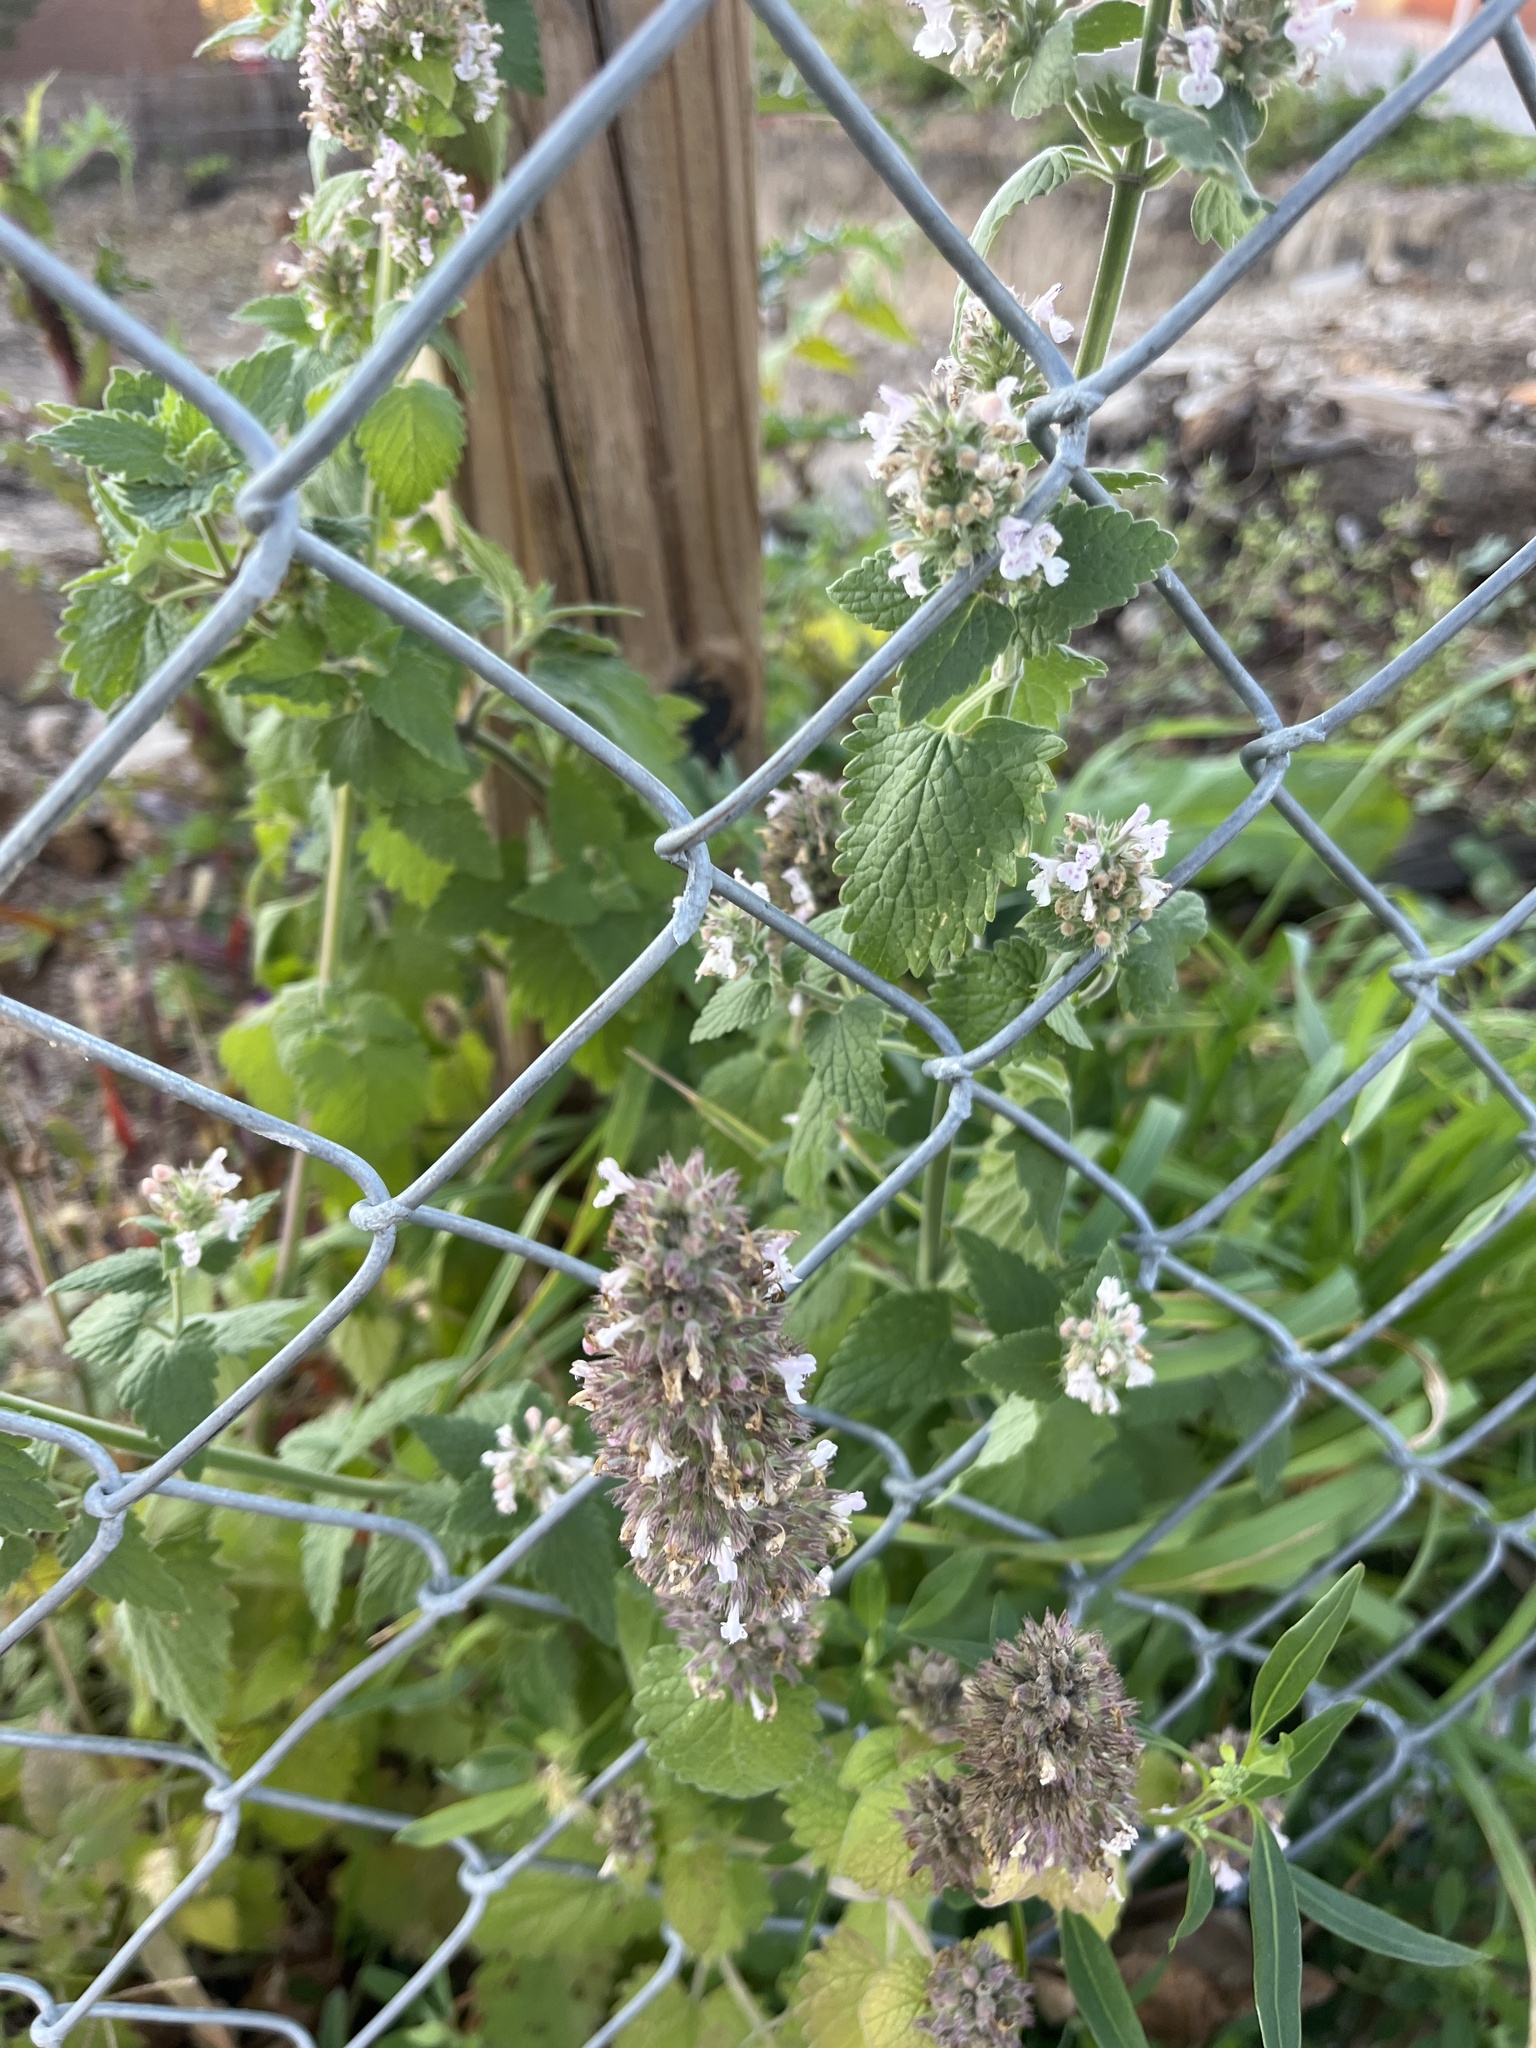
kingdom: Plantae
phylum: Tracheophyta
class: Magnoliopsida
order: Lamiales
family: Lamiaceae
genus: Nepeta
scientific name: Nepeta cataria
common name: Catnip
